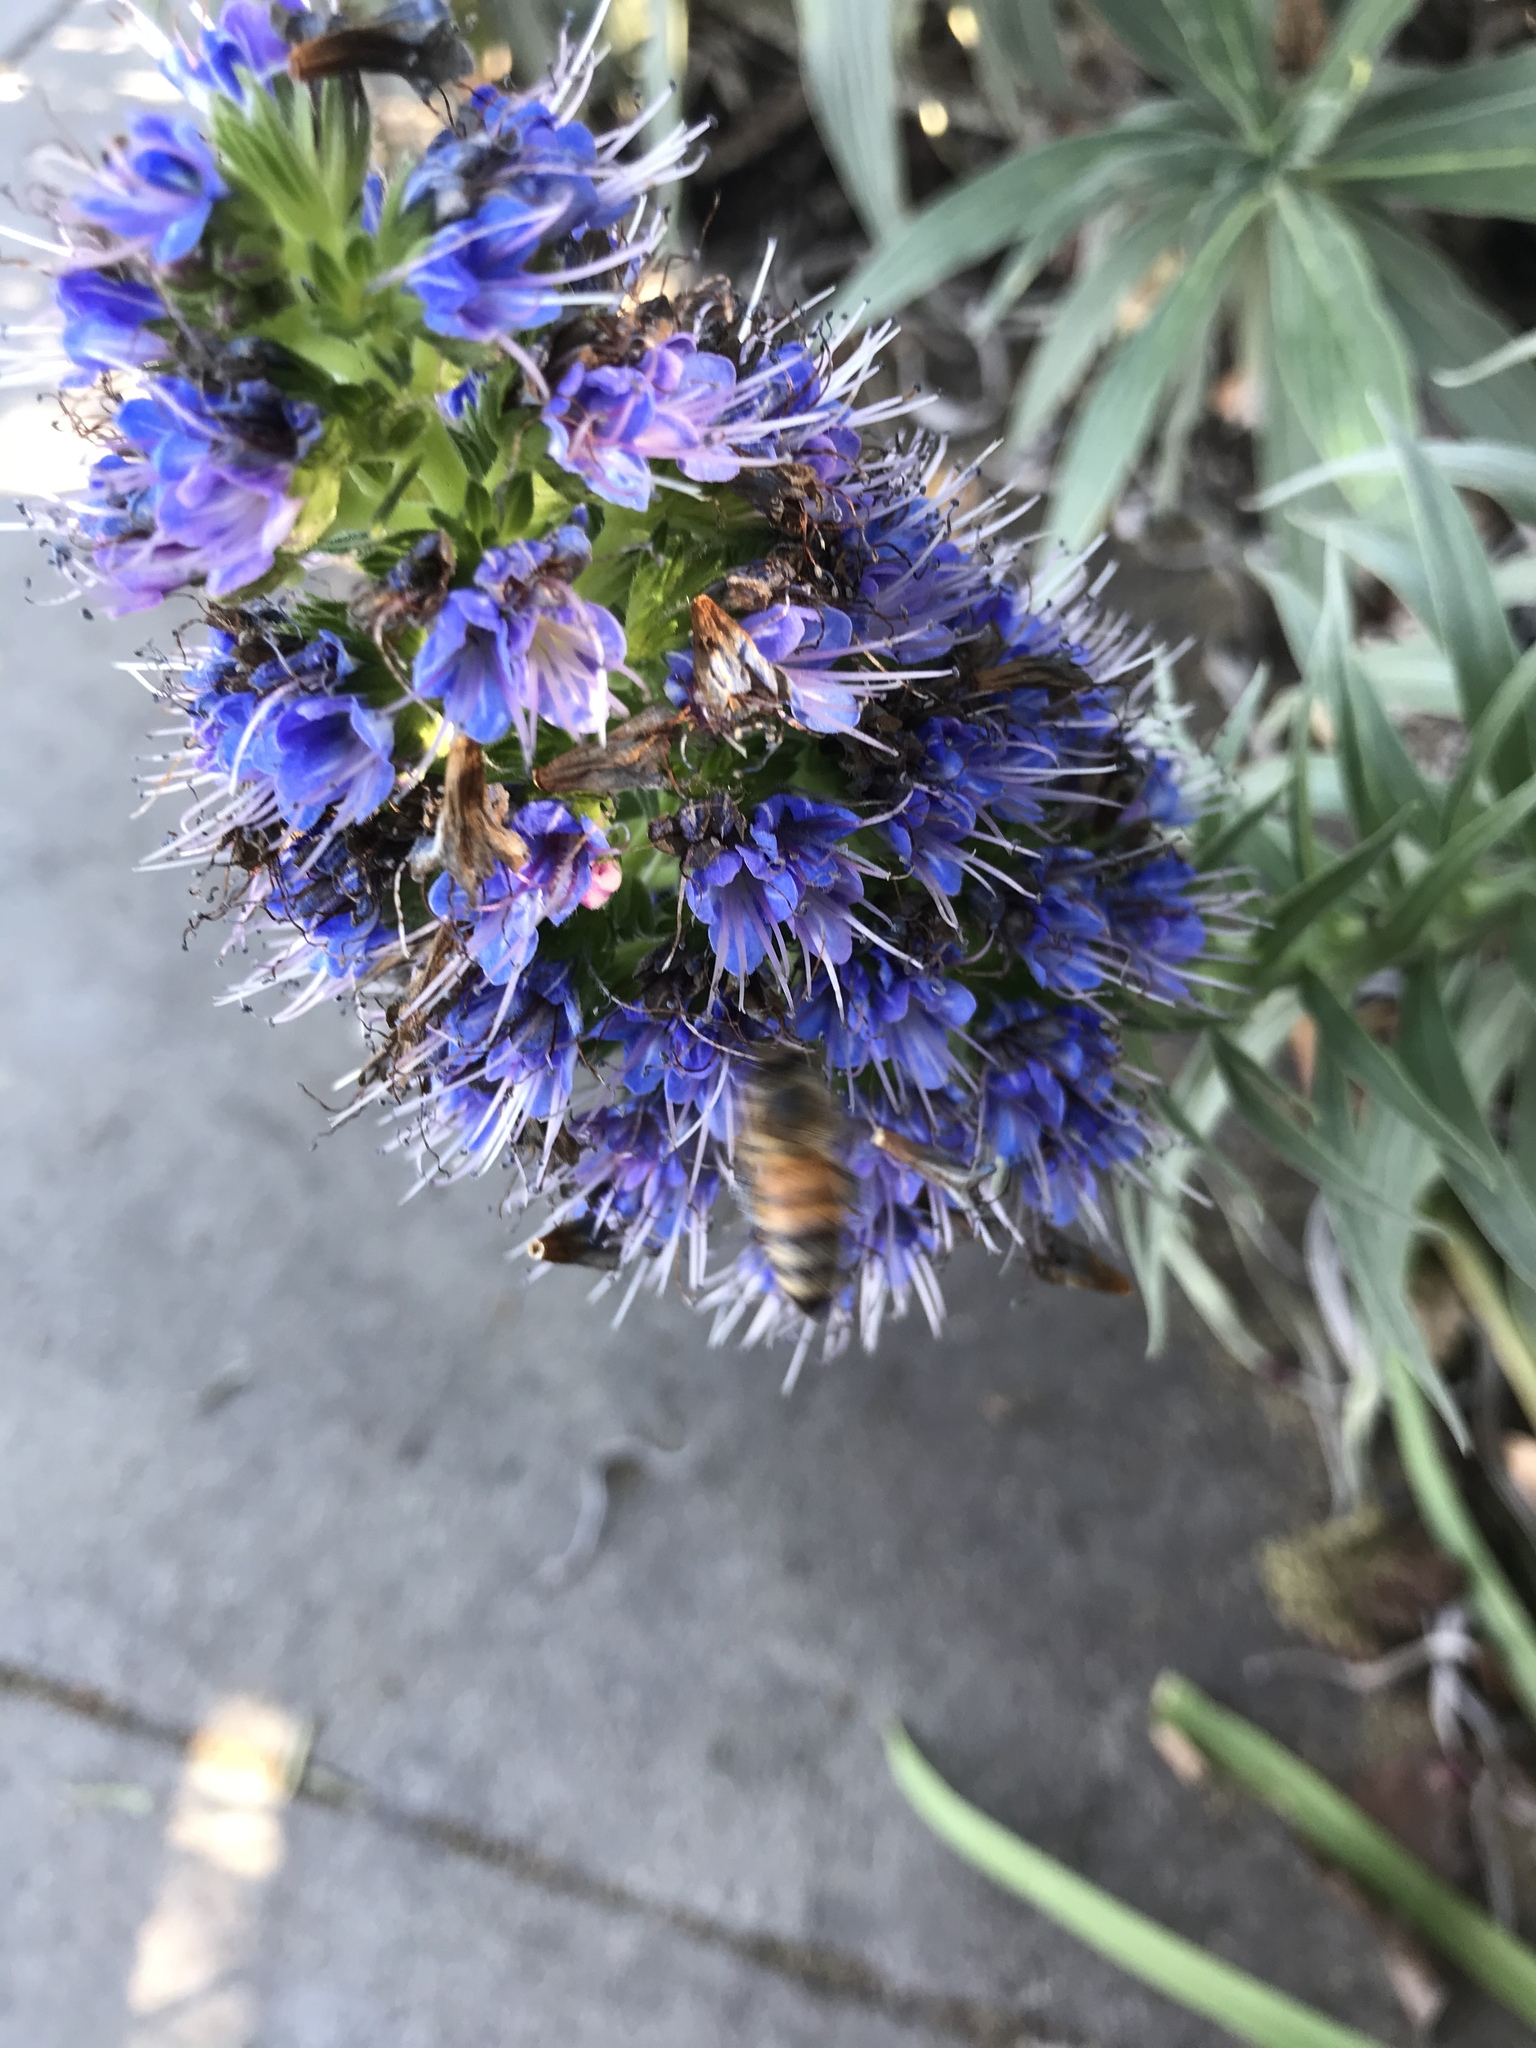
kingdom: Animalia
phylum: Arthropoda
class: Insecta
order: Hymenoptera
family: Apidae
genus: Apis
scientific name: Apis mellifera
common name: Honey bee
